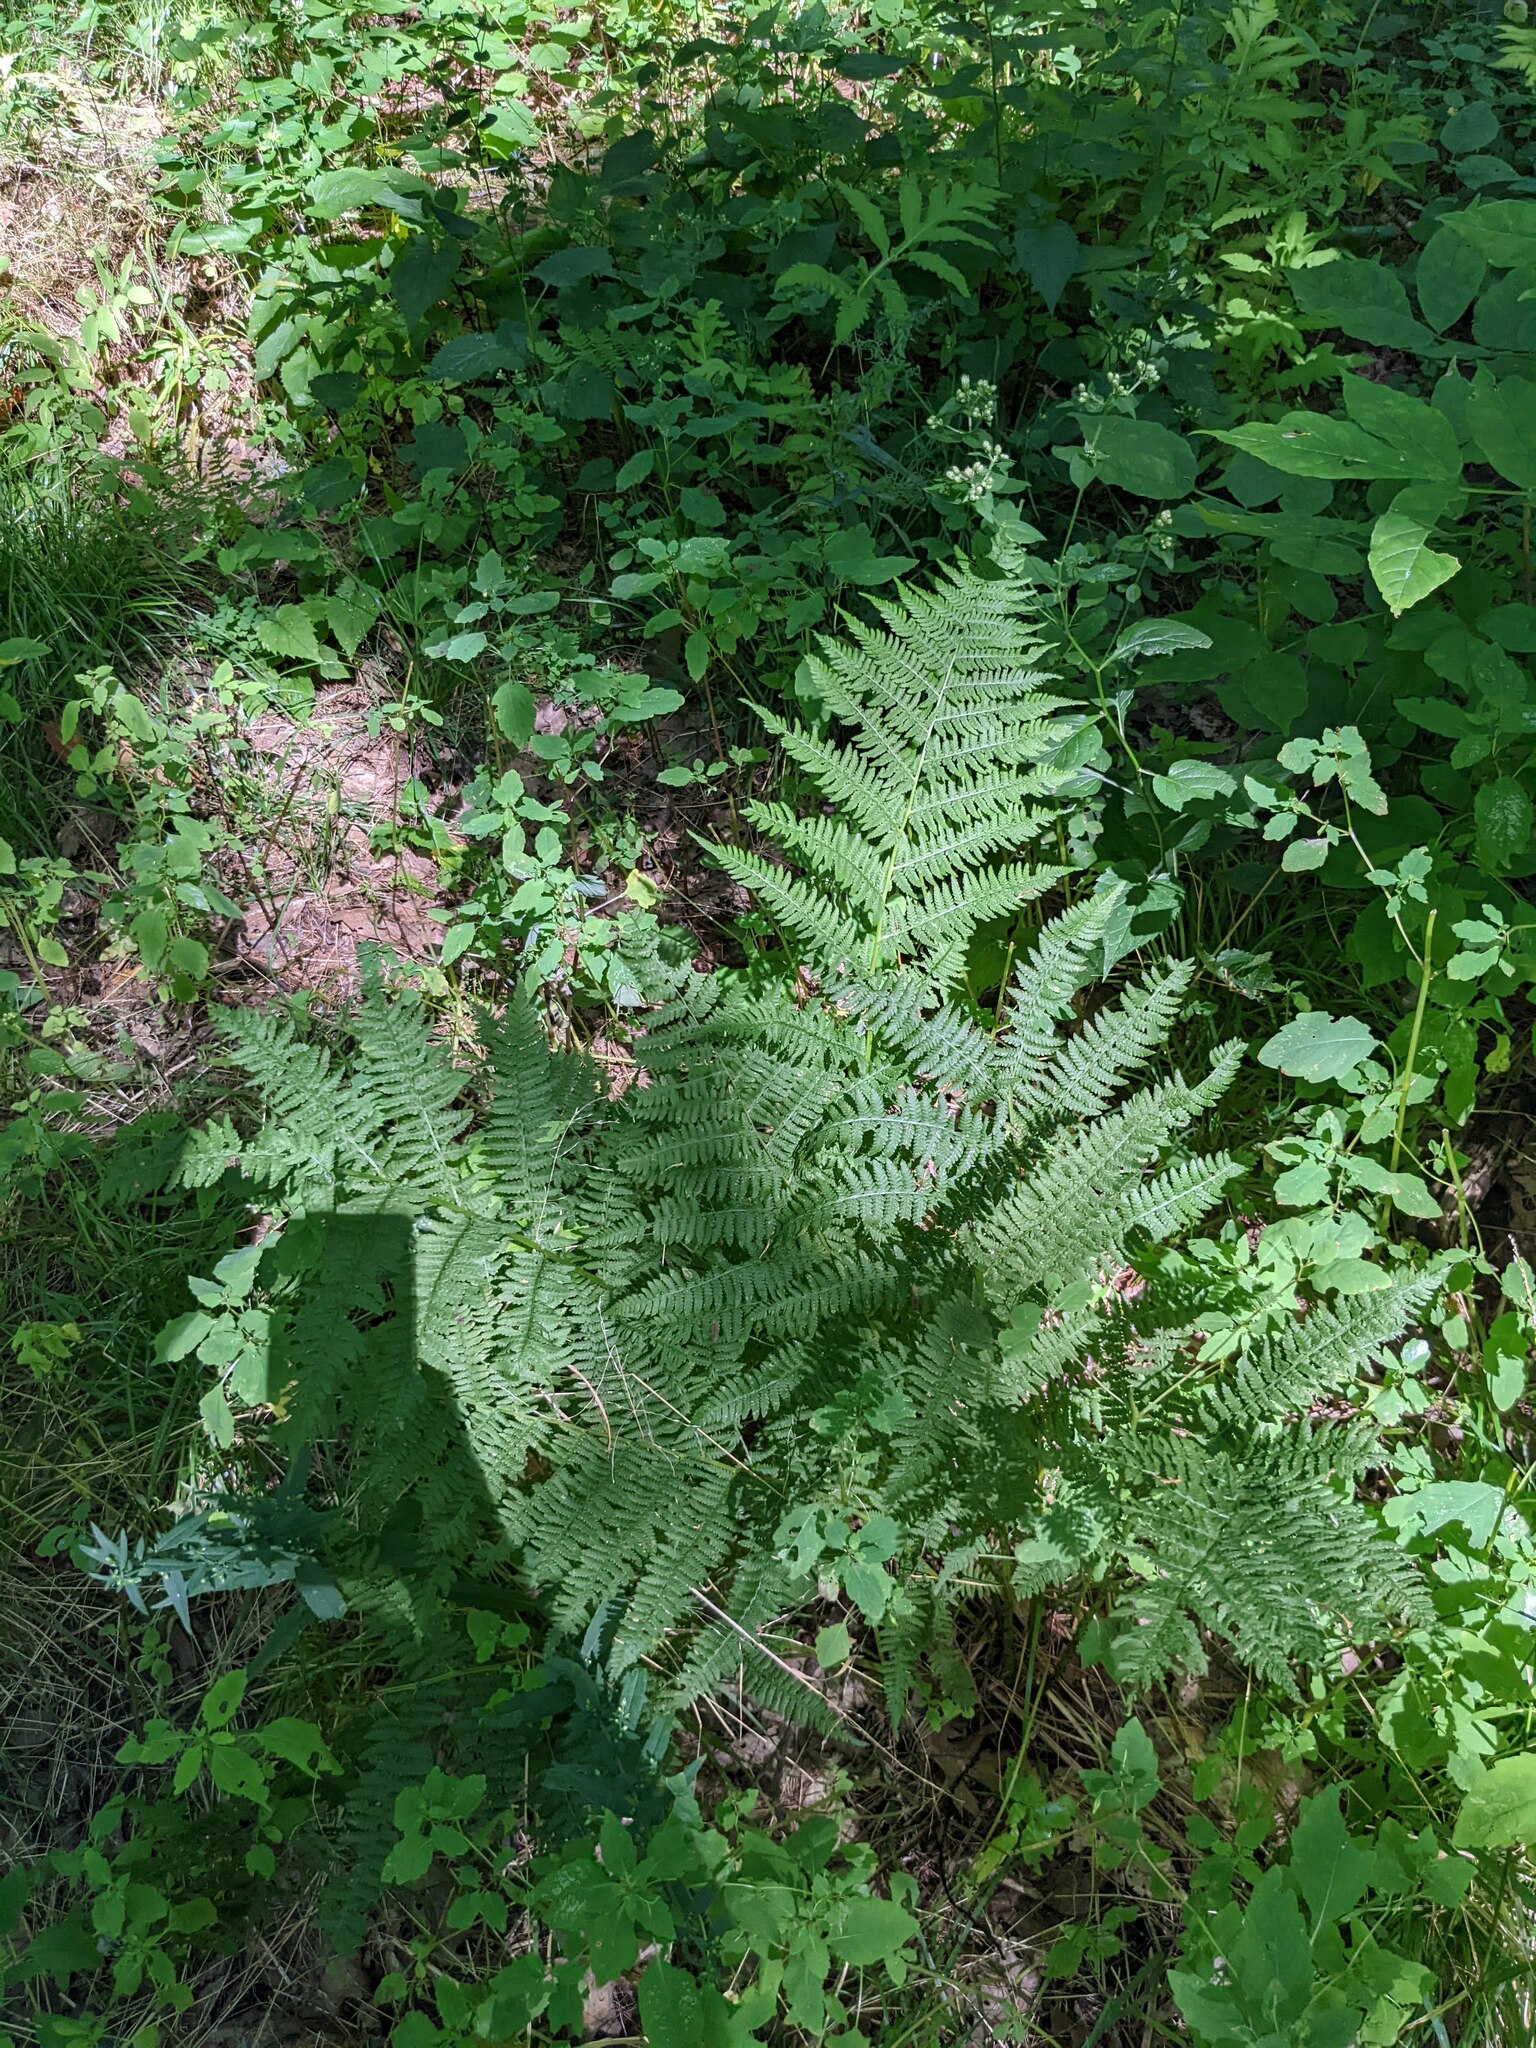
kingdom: Plantae
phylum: Tracheophyta
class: Polypodiopsida
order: Polypodiales
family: Athyriaceae
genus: Athyrium
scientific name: Athyrium angustum
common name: Northern lady fern
